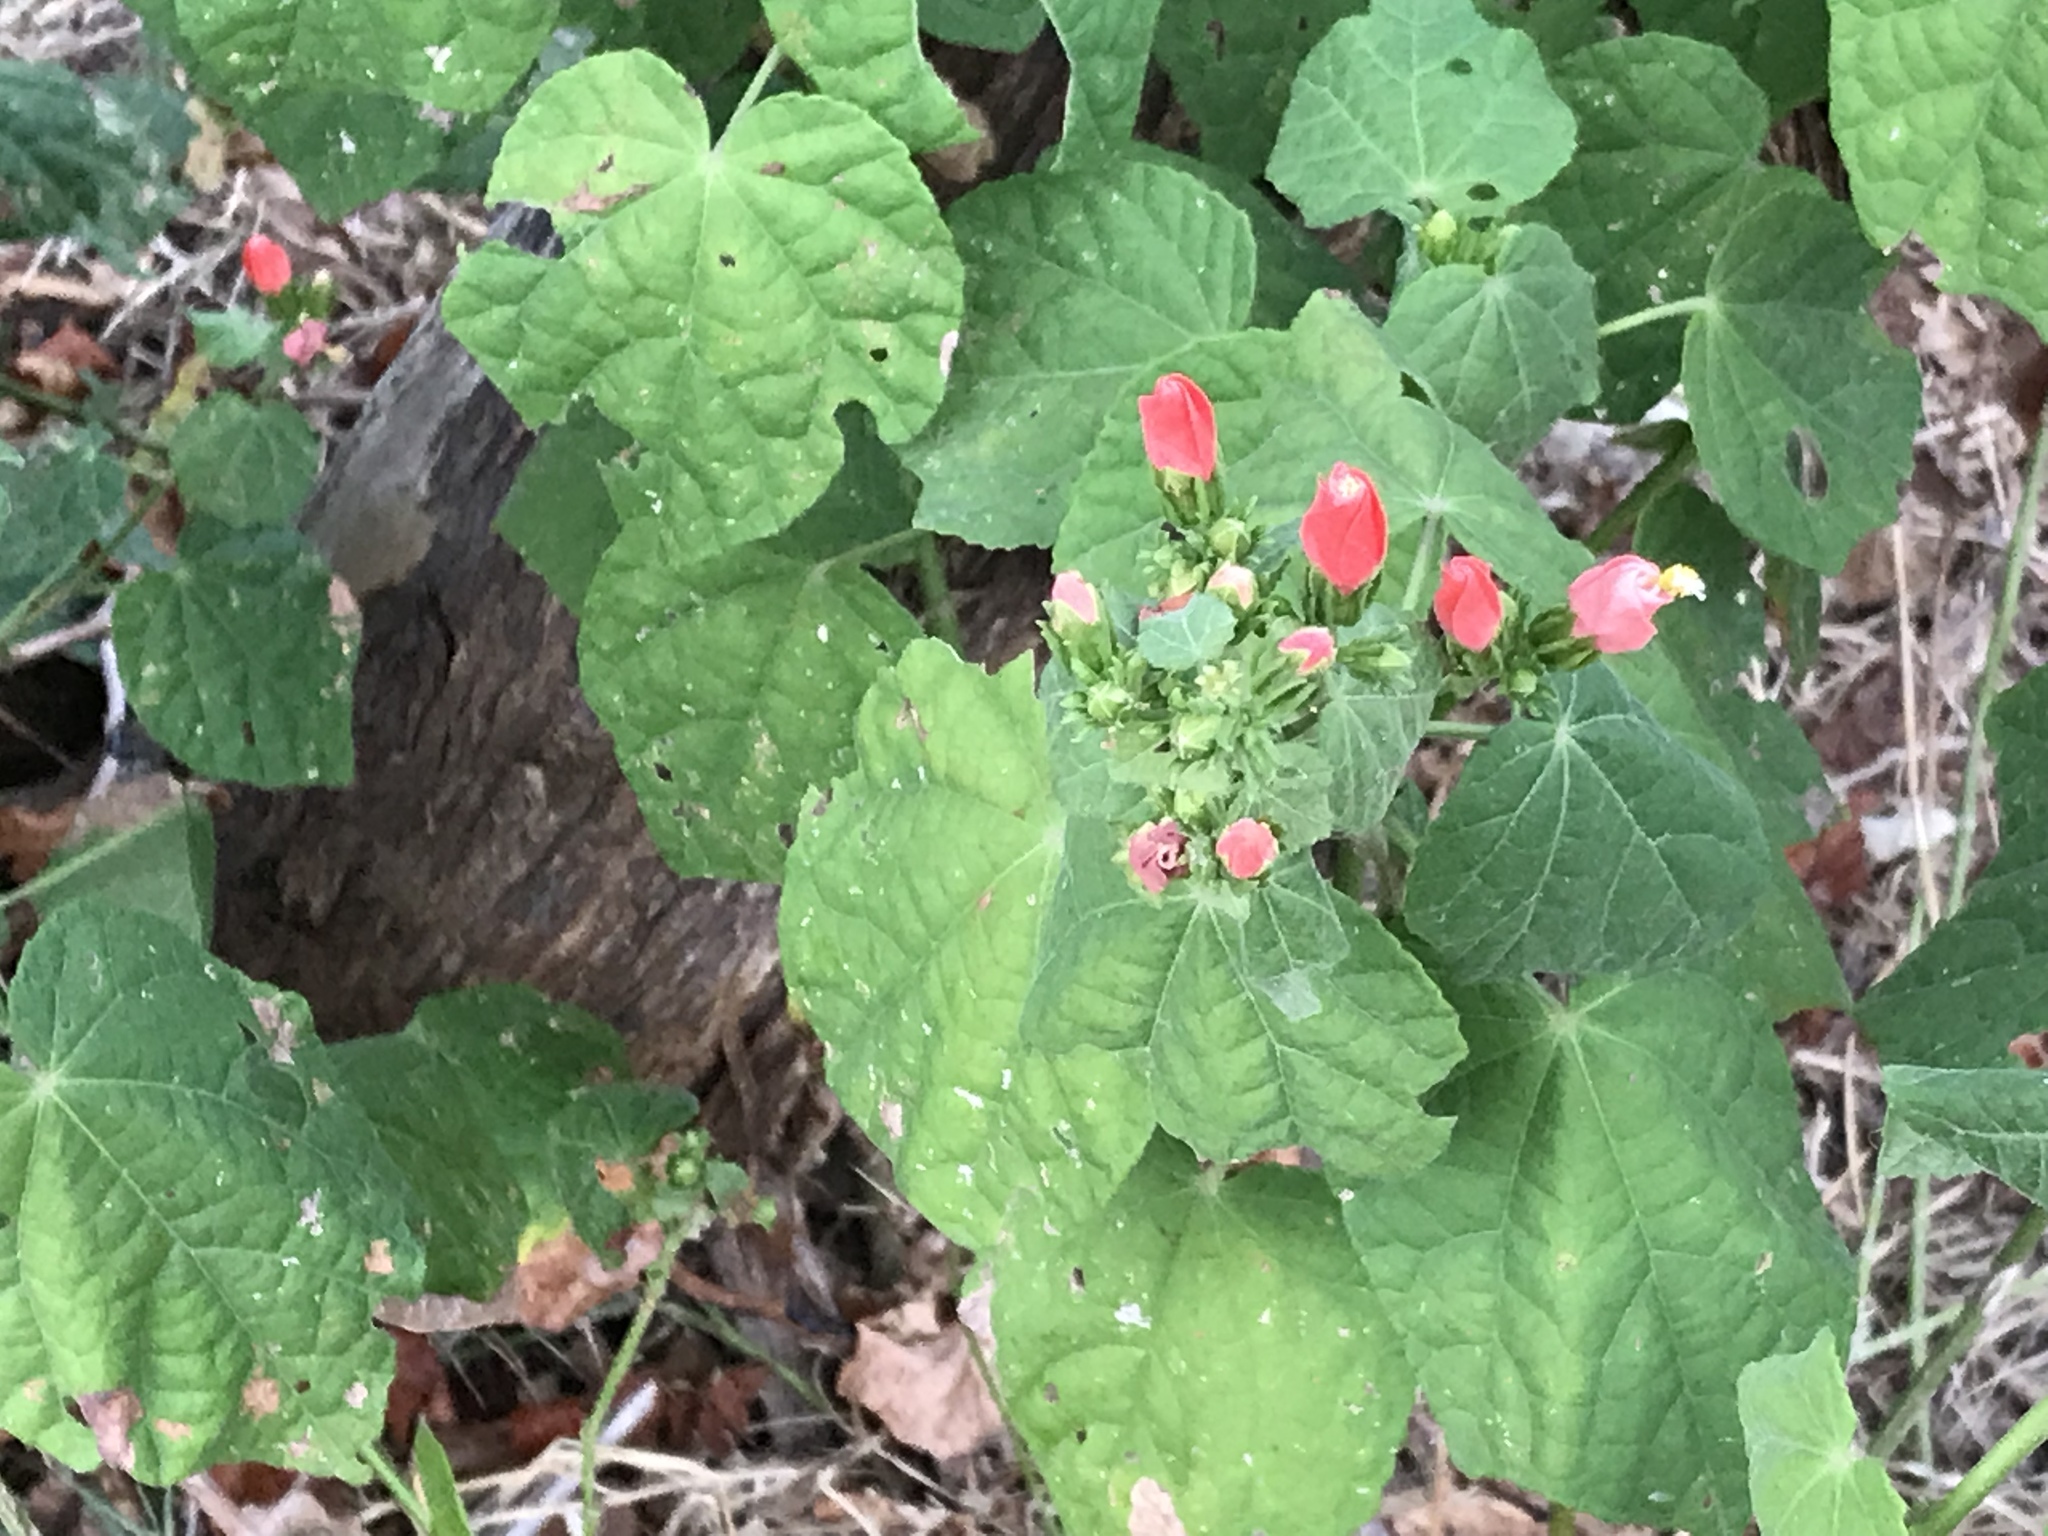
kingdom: Plantae
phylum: Tracheophyta
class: Magnoliopsida
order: Malvales
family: Malvaceae
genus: Malvaviscus
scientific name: Malvaviscus arboreus
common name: Wax mallow
